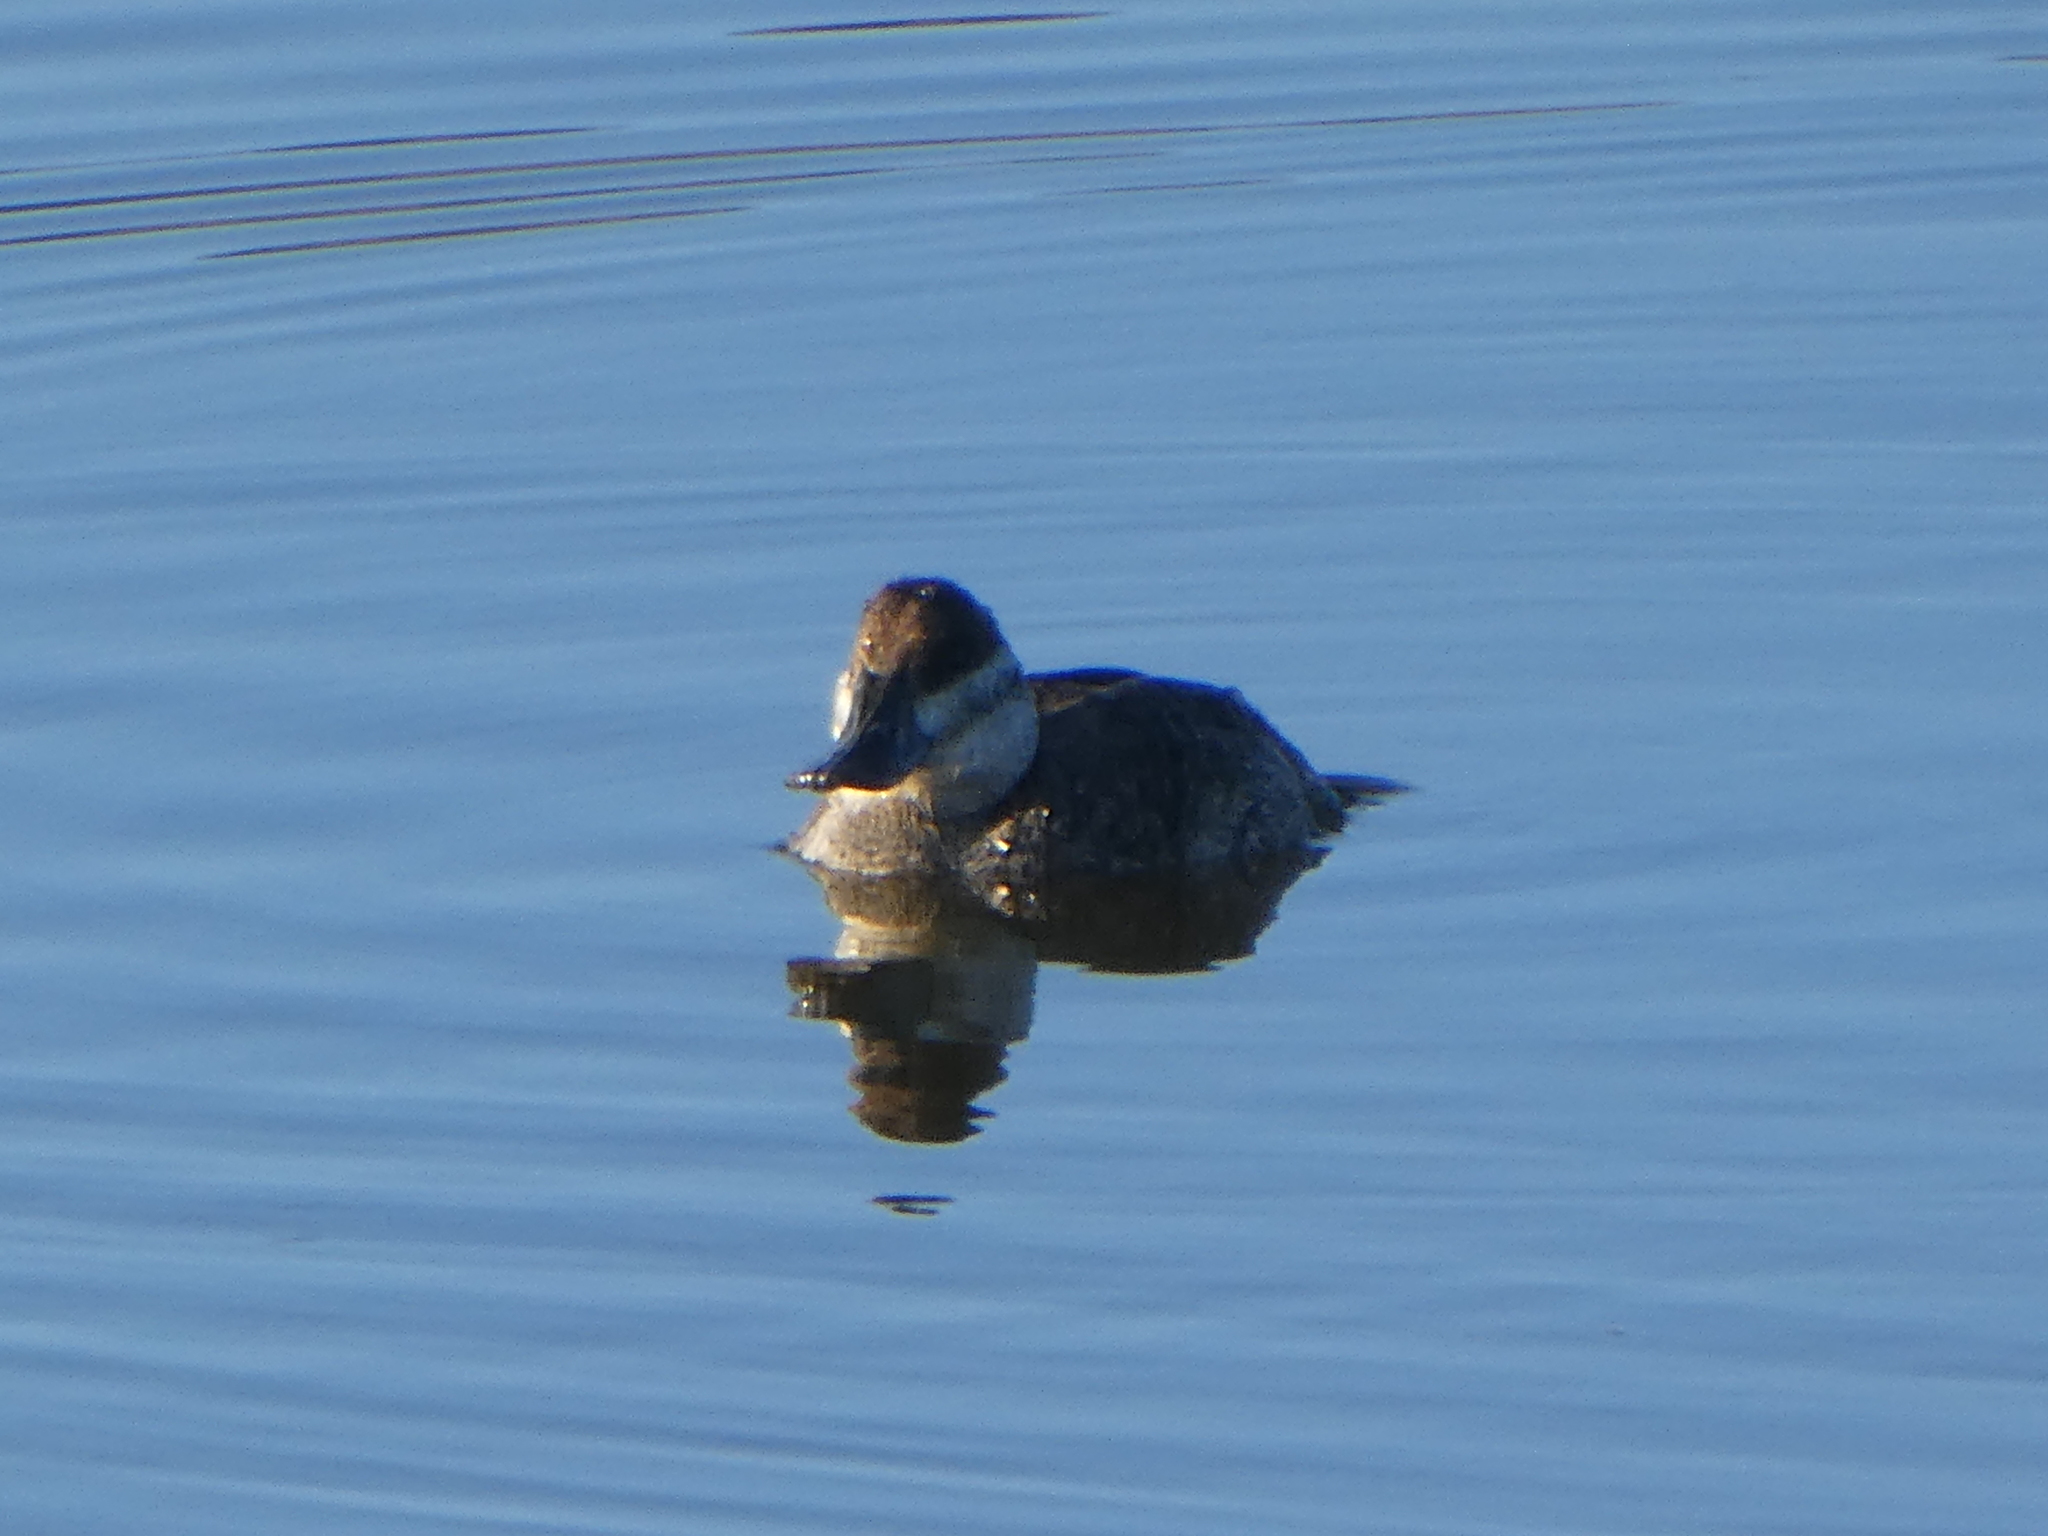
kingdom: Animalia
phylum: Chordata
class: Aves
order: Anseriformes
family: Anatidae
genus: Oxyura
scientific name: Oxyura jamaicensis
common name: Ruddy duck
